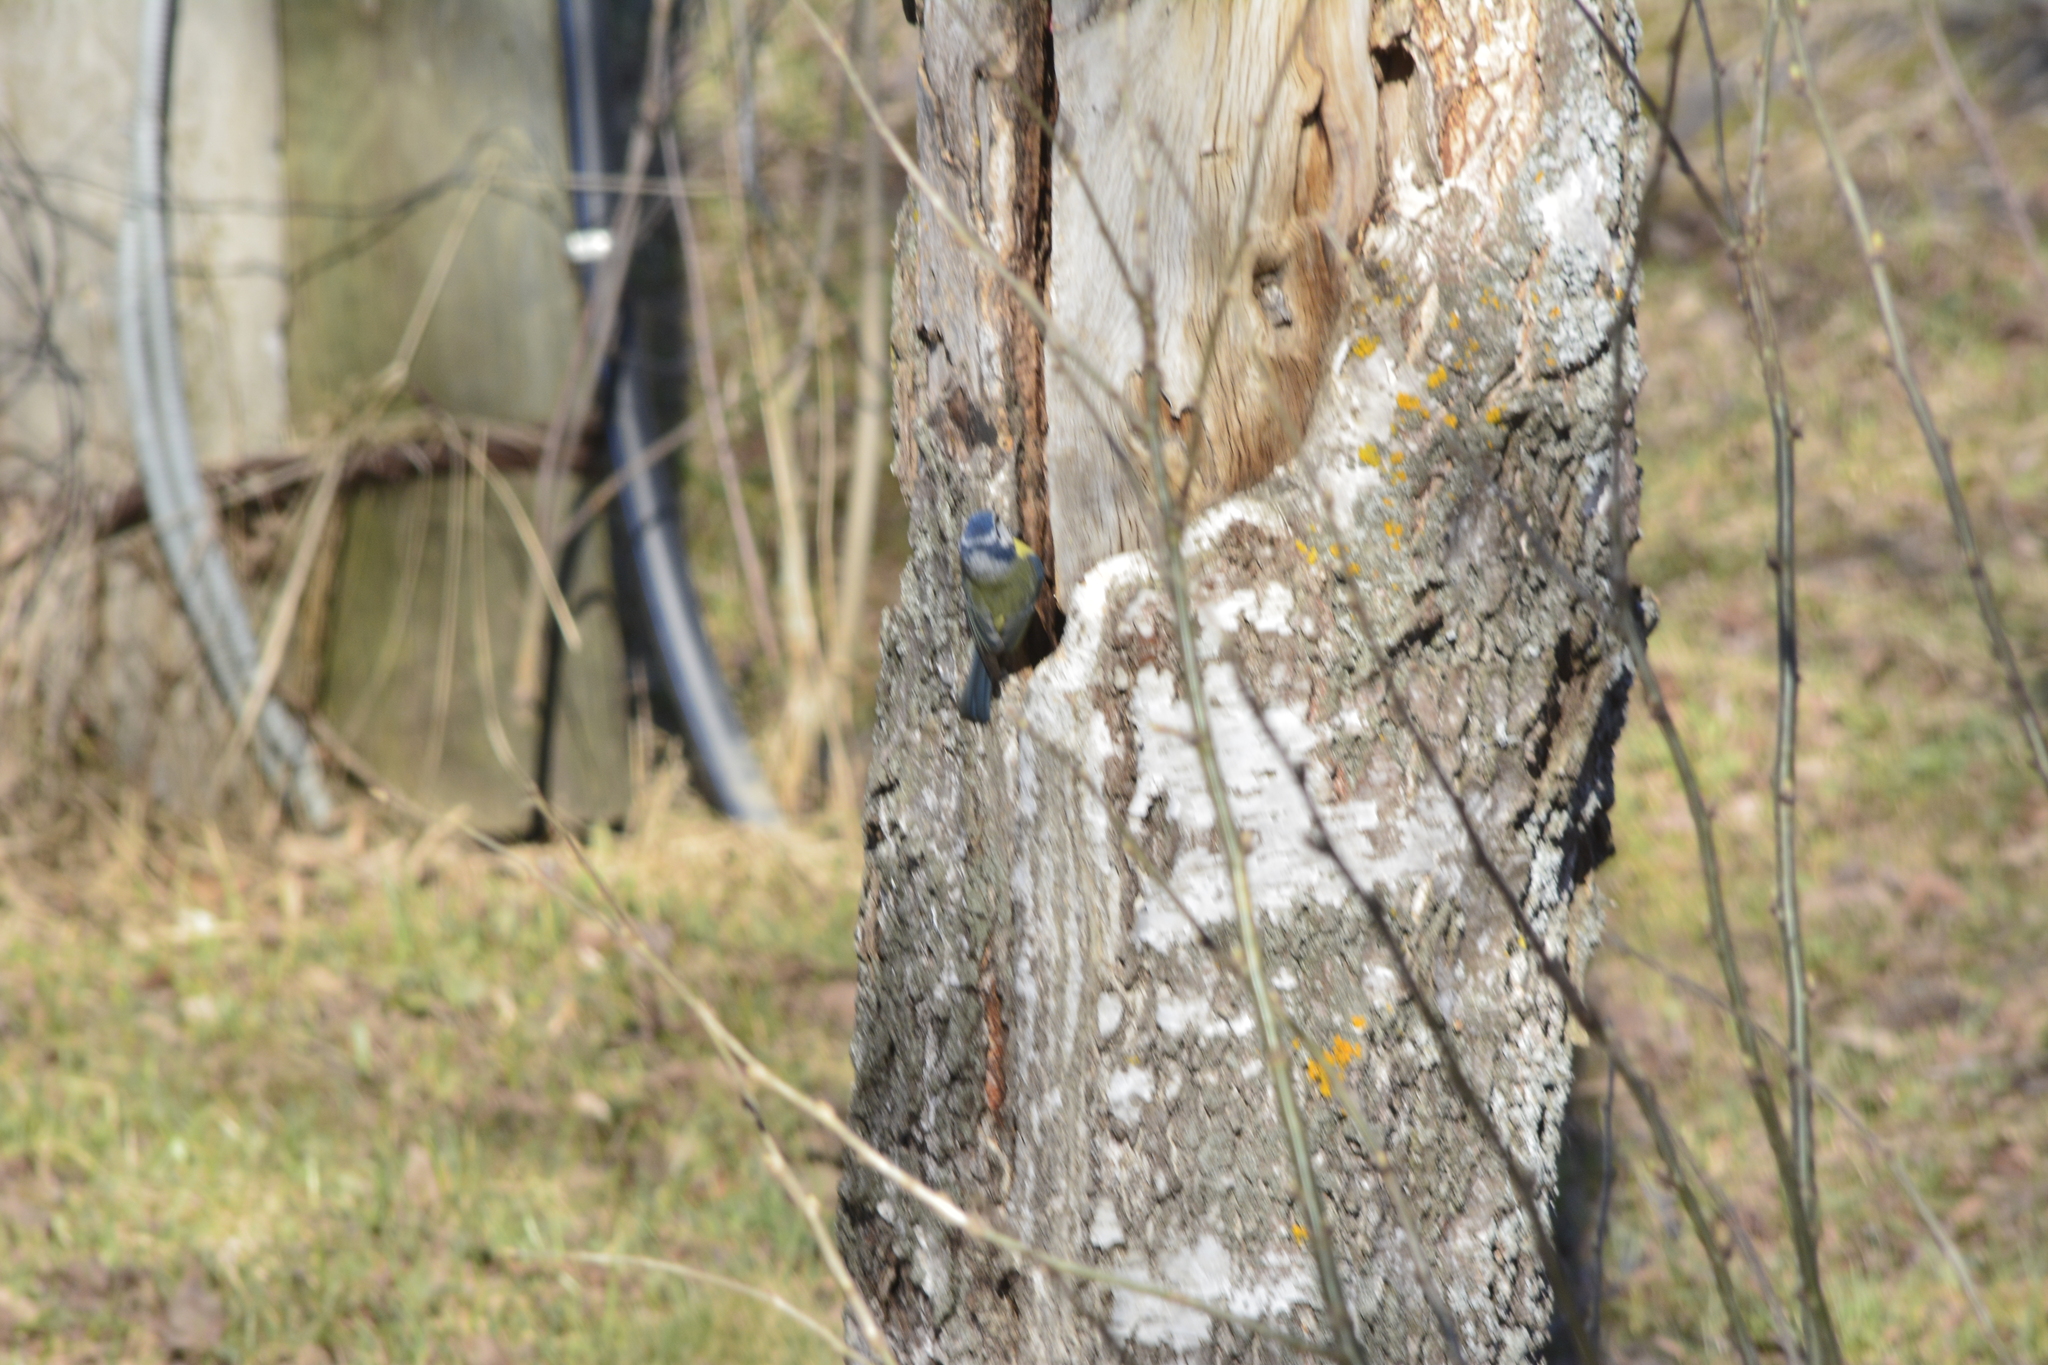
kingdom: Animalia
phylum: Chordata
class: Aves
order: Passeriformes
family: Paridae
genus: Cyanistes
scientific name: Cyanistes caeruleus
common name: Eurasian blue tit
